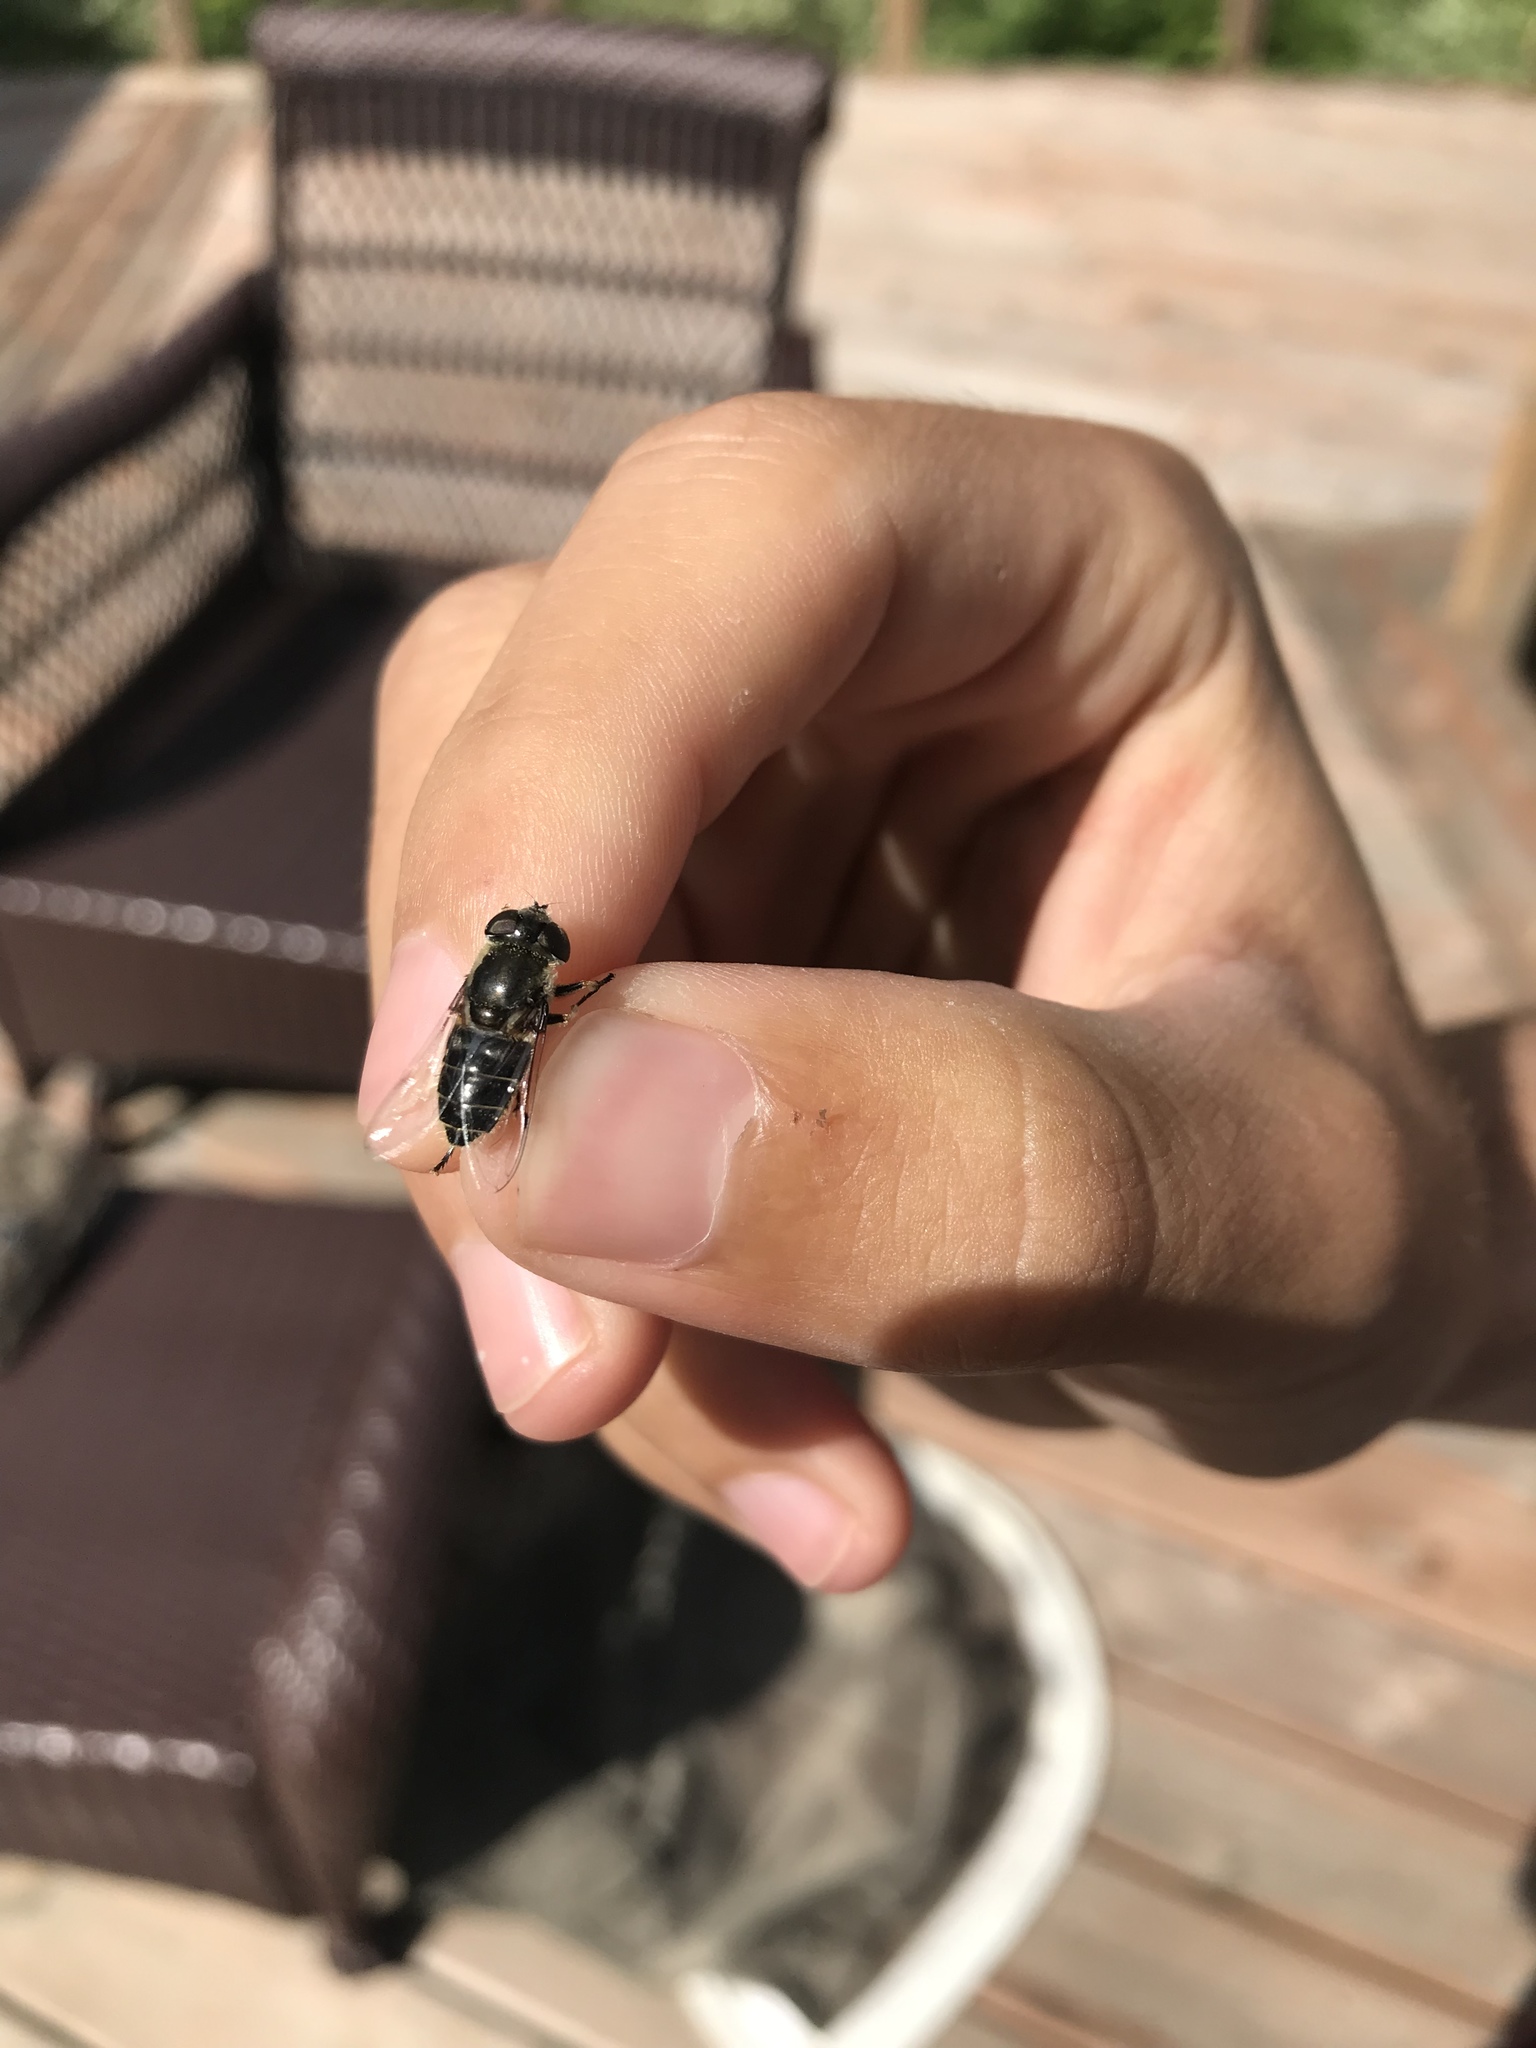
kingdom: Animalia
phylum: Arthropoda
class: Insecta
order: Diptera
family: Syrphidae
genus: Eristalis
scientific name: Eristalis dimidiata
